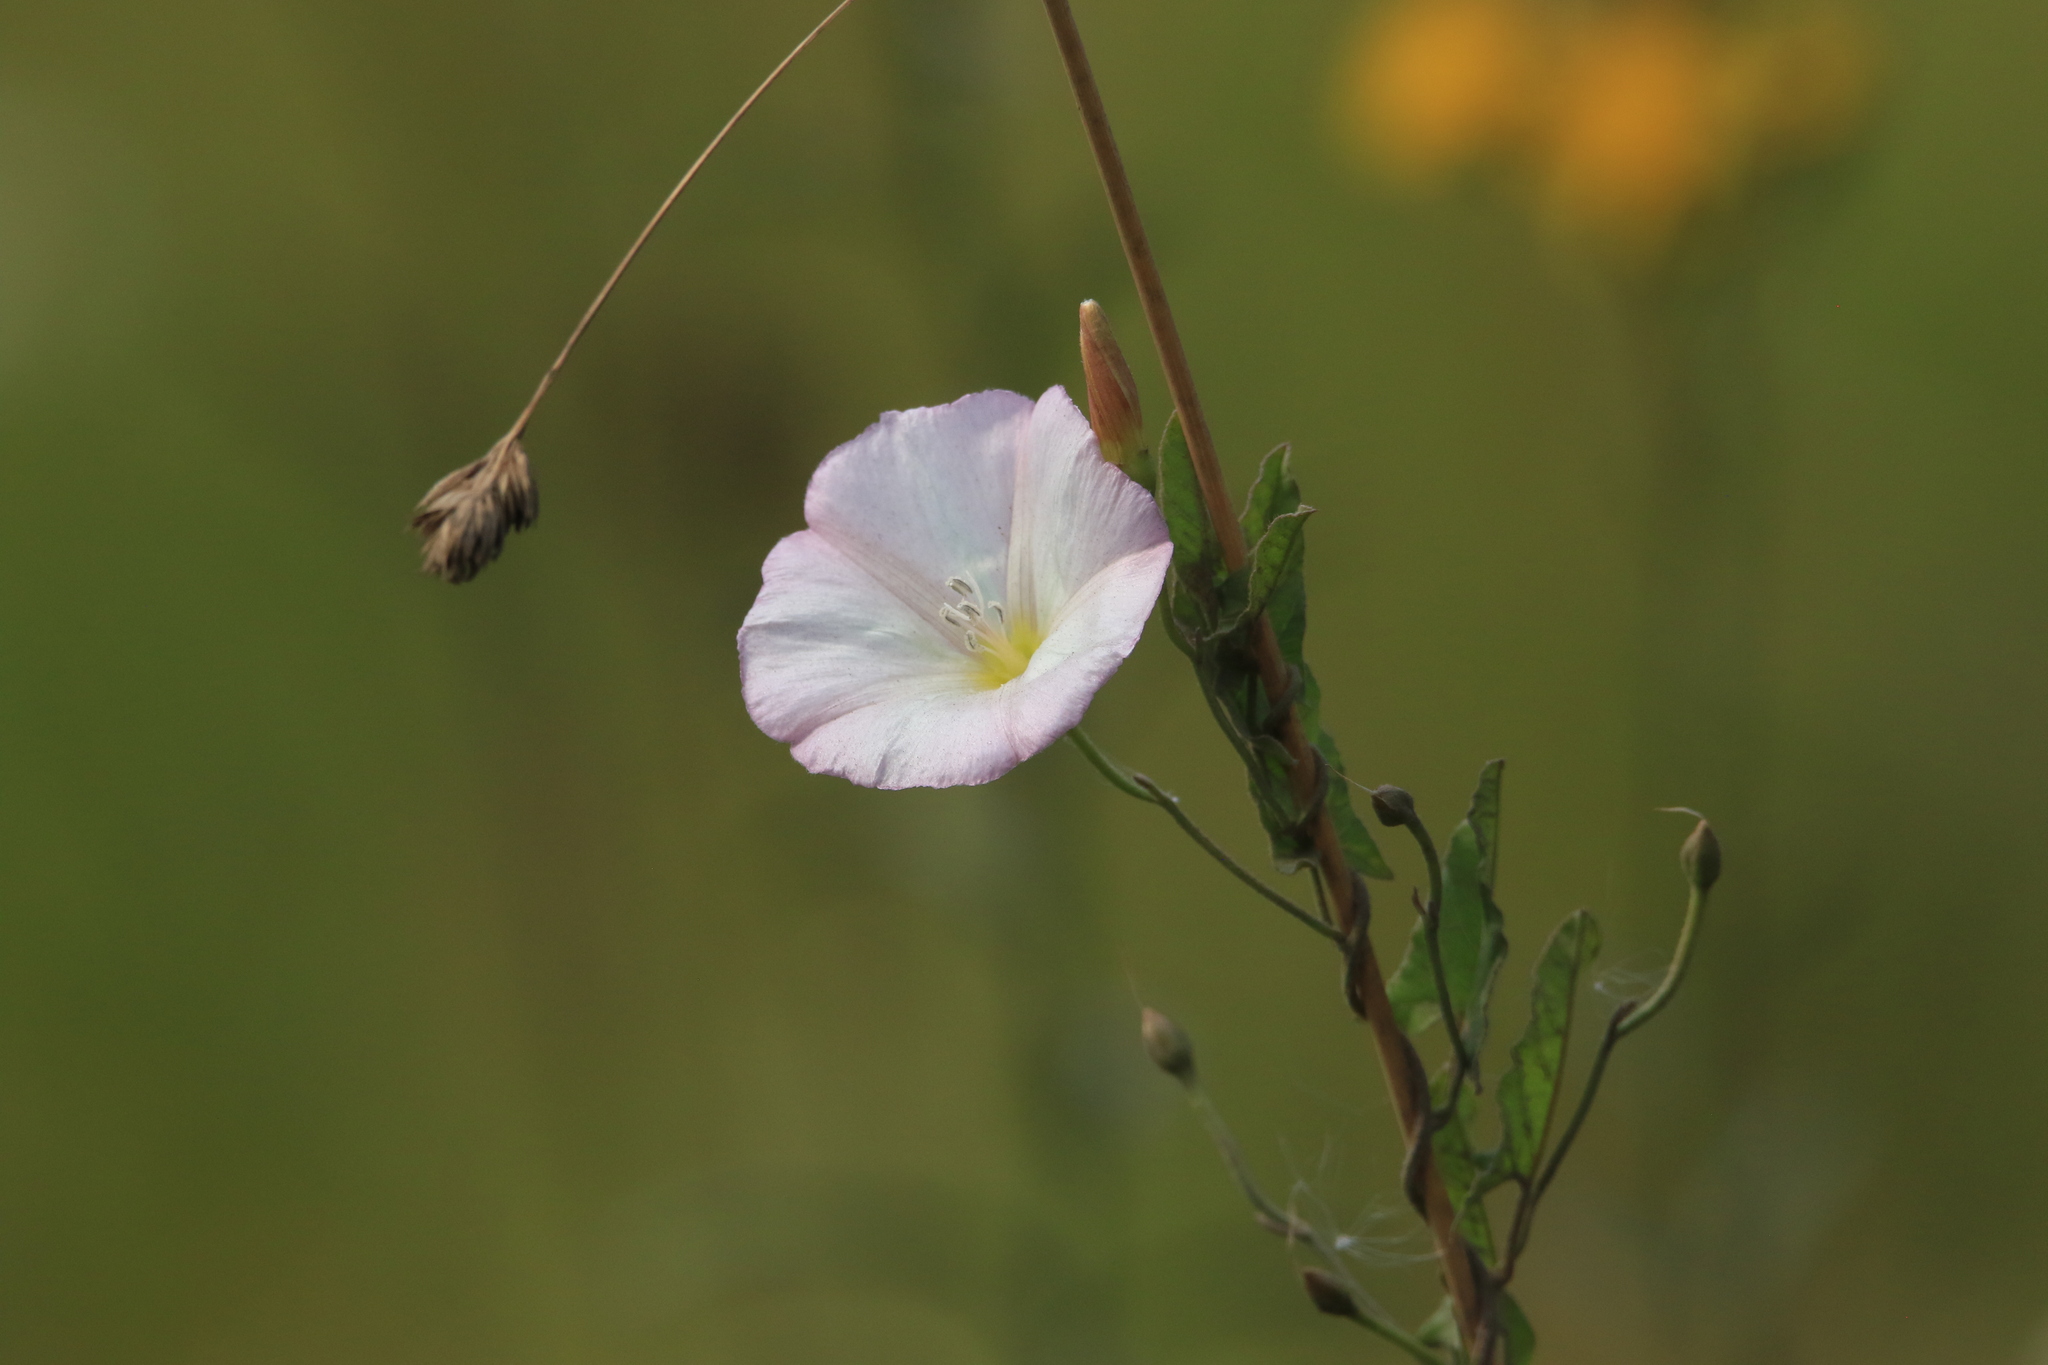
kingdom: Plantae
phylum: Tracheophyta
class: Magnoliopsida
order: Solanales
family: Convolvulaceae
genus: Convolvulus
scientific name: Convolvulus arvensis
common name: Field bindweed
